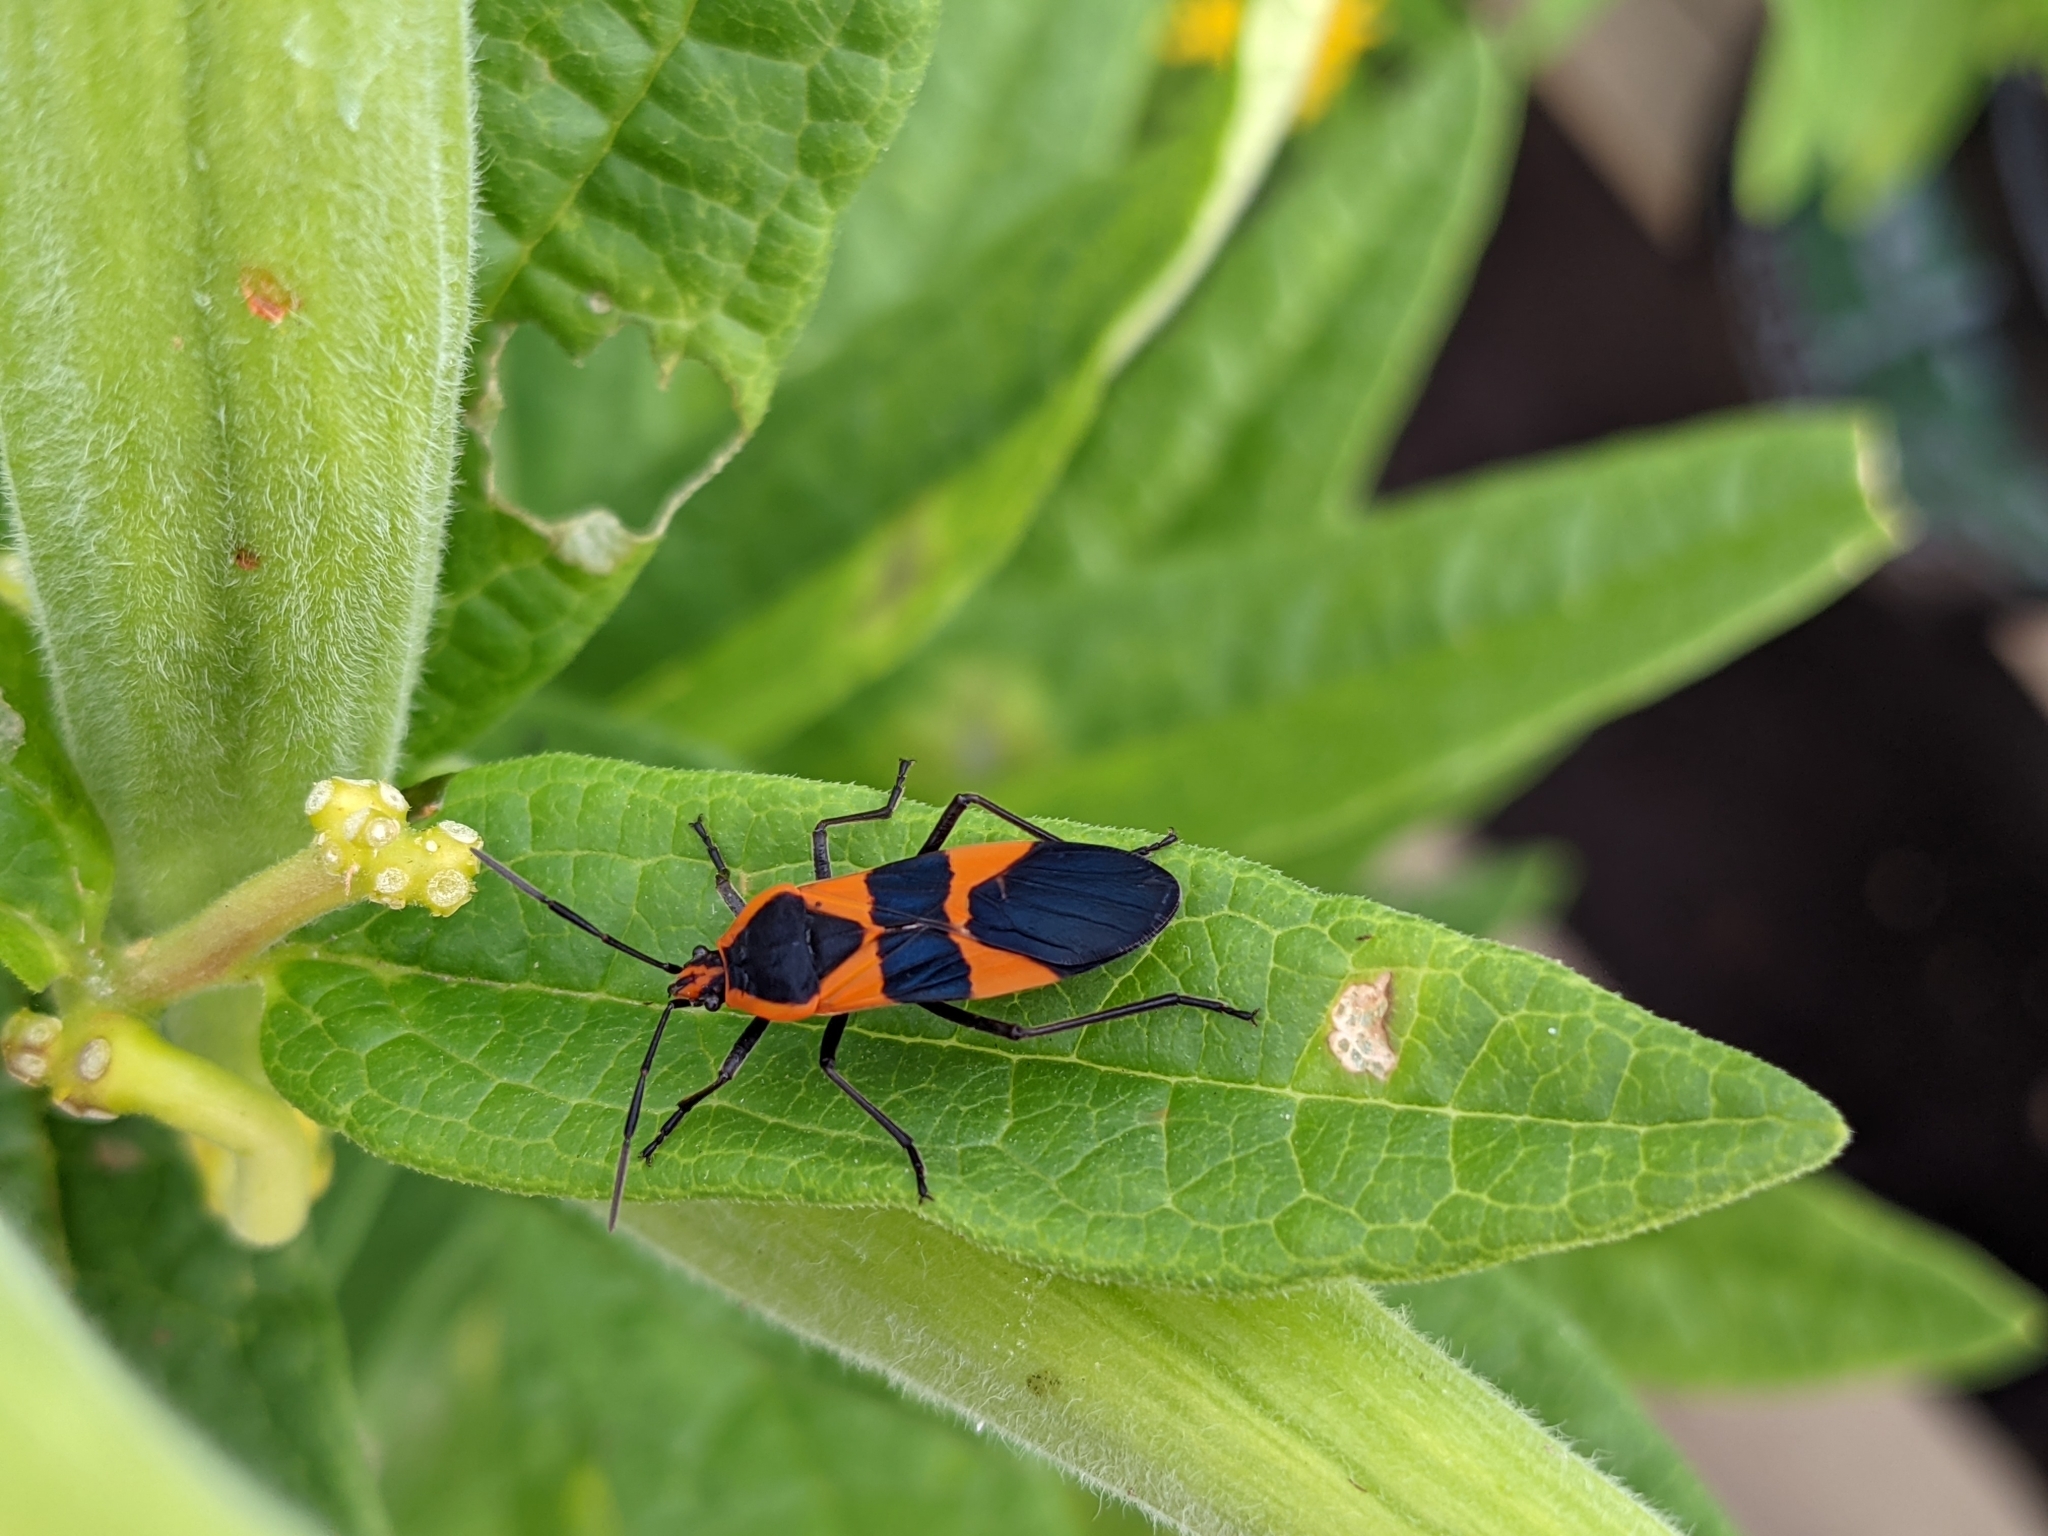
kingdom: Animalia
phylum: Arthropoda
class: Insecta
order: Hemiptera
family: Lygaeidae
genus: Oncopeltus
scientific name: Oncopeltus fasciatus
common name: Large milkweed bug
